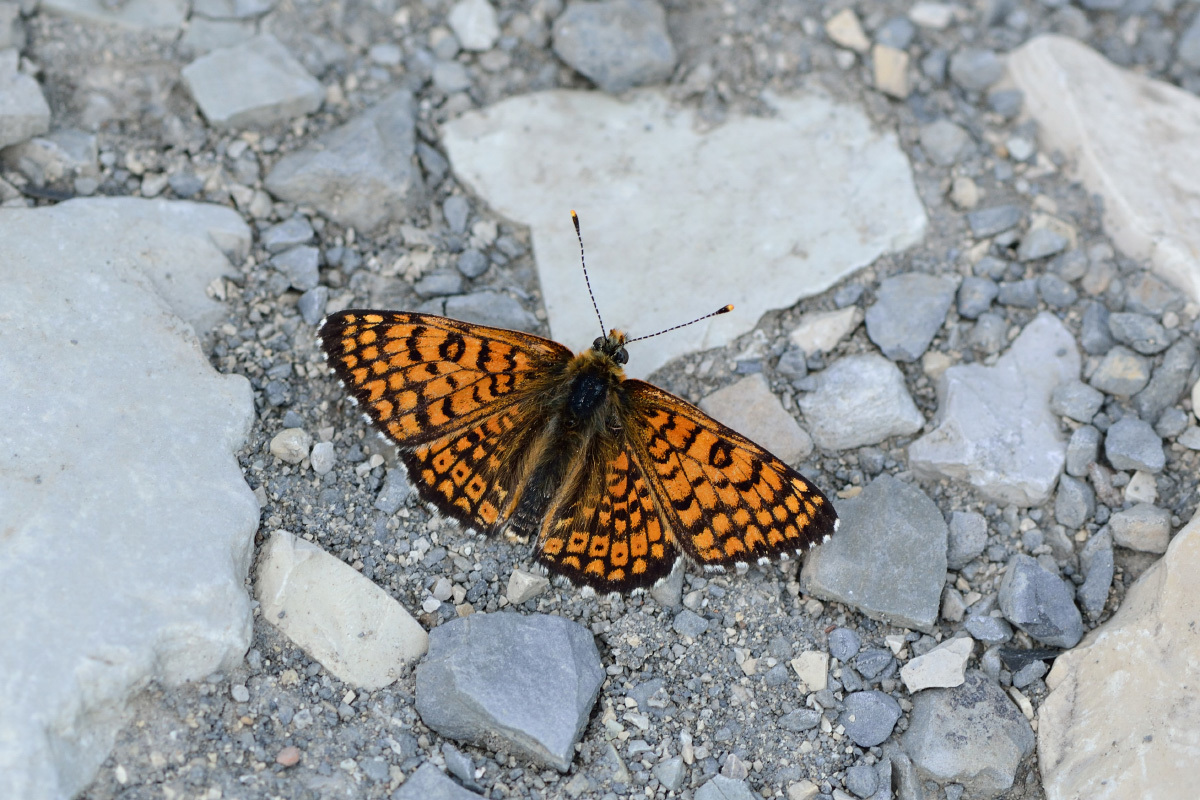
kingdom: Animalia
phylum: Arthropoda
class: Insecta
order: Lepidoptera
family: Nymphalidae
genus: Melitaea
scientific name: Melitaea cinxia
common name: Glanville fritillary
